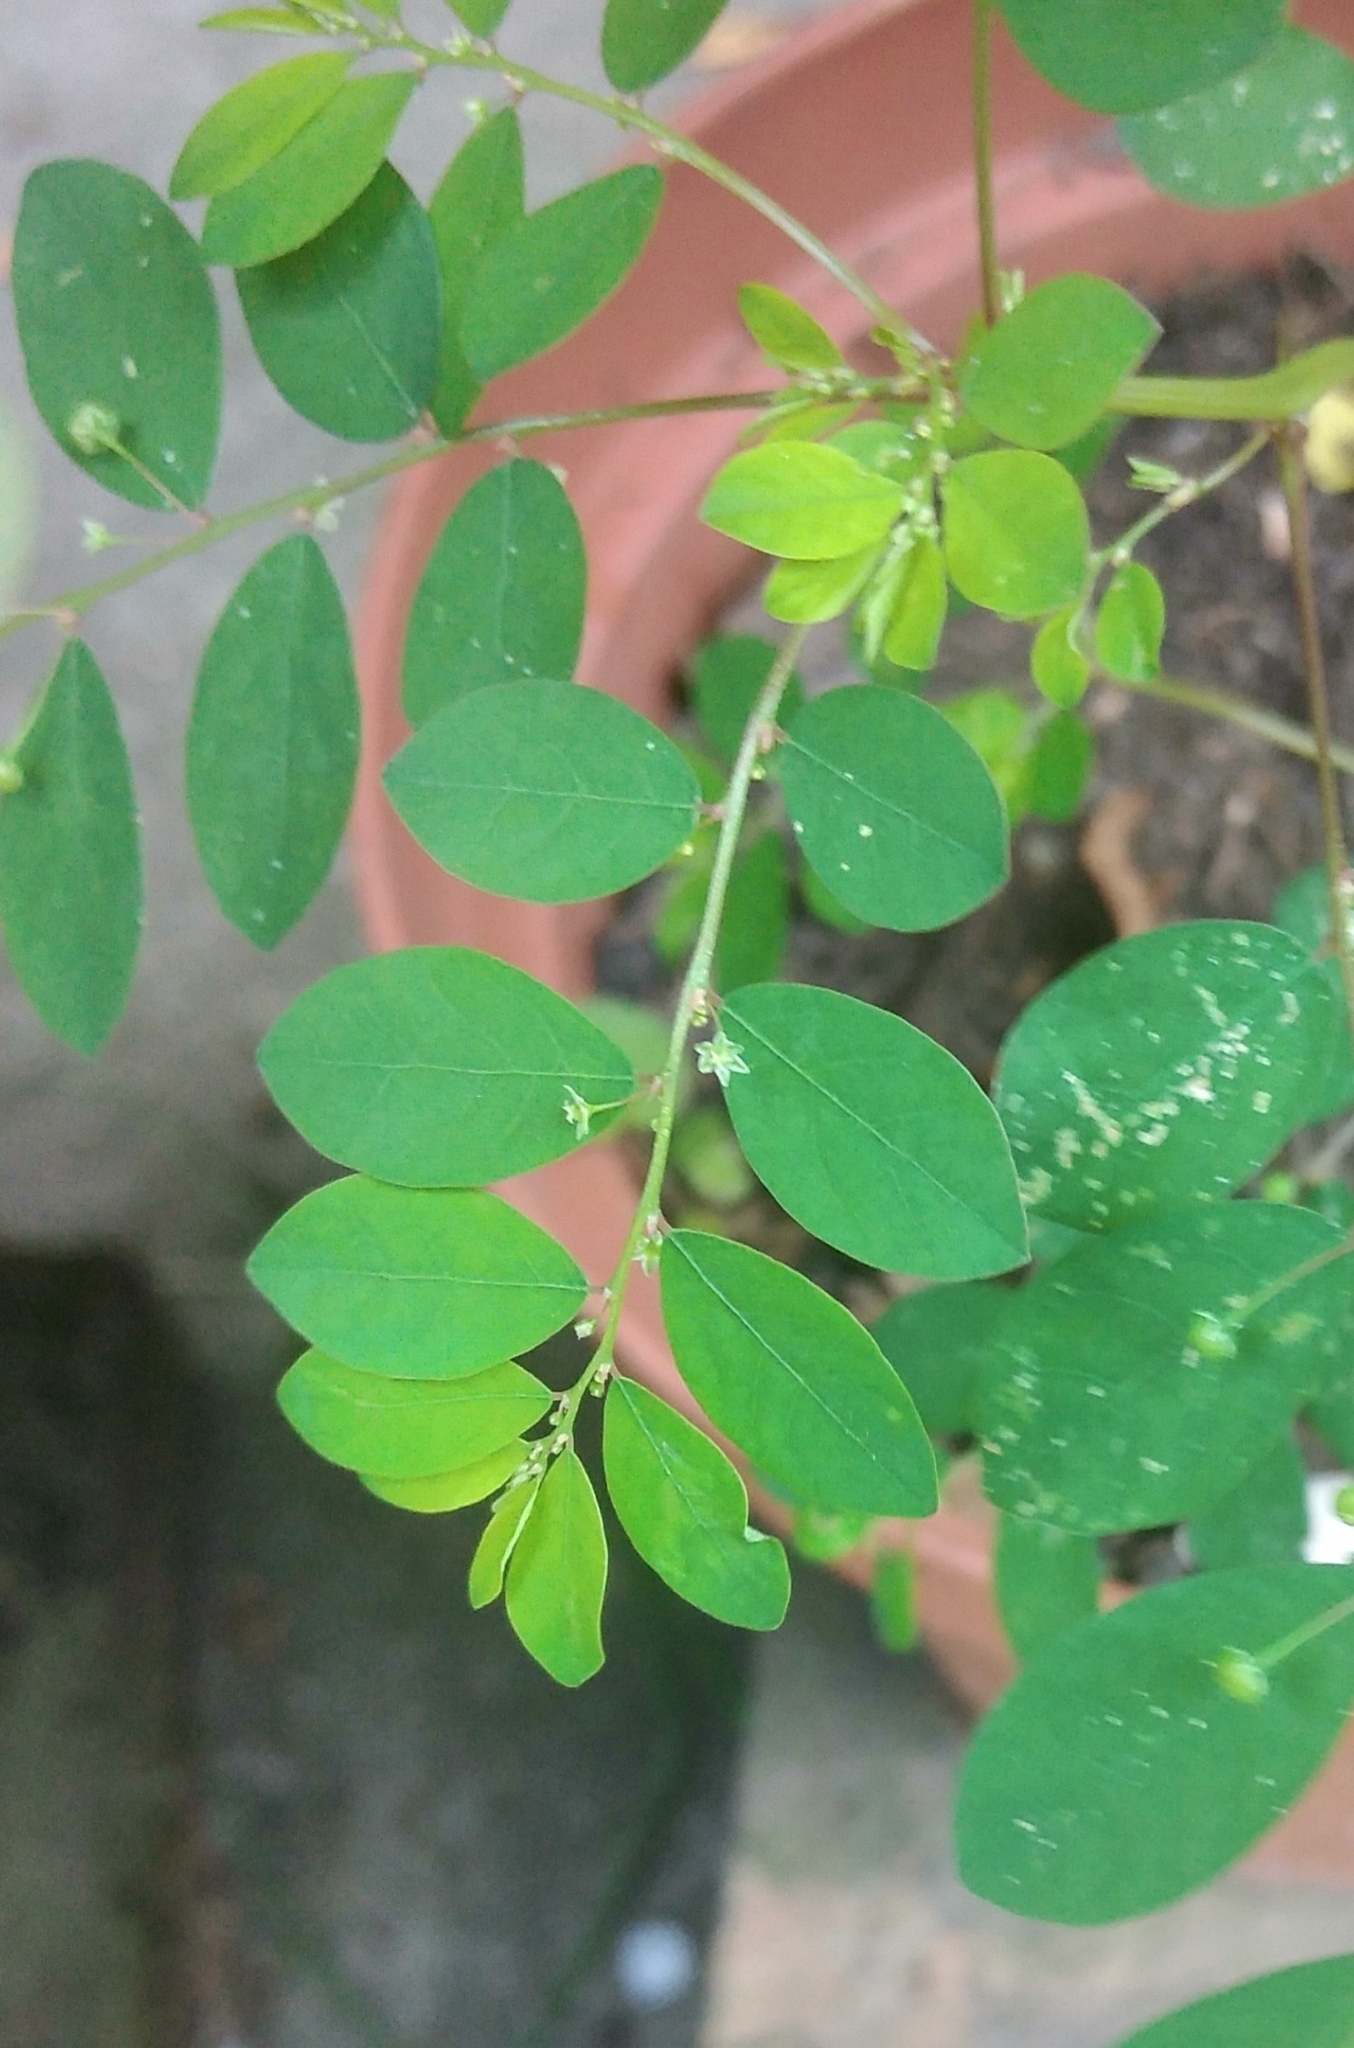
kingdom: Plantae
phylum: Tracheophyta
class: Magnoliopsida
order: Malpighiales
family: Phyllanthaceae
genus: Phyllanthus
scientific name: Phyllanthus tenellus
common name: Mascarene island leaf-flower
